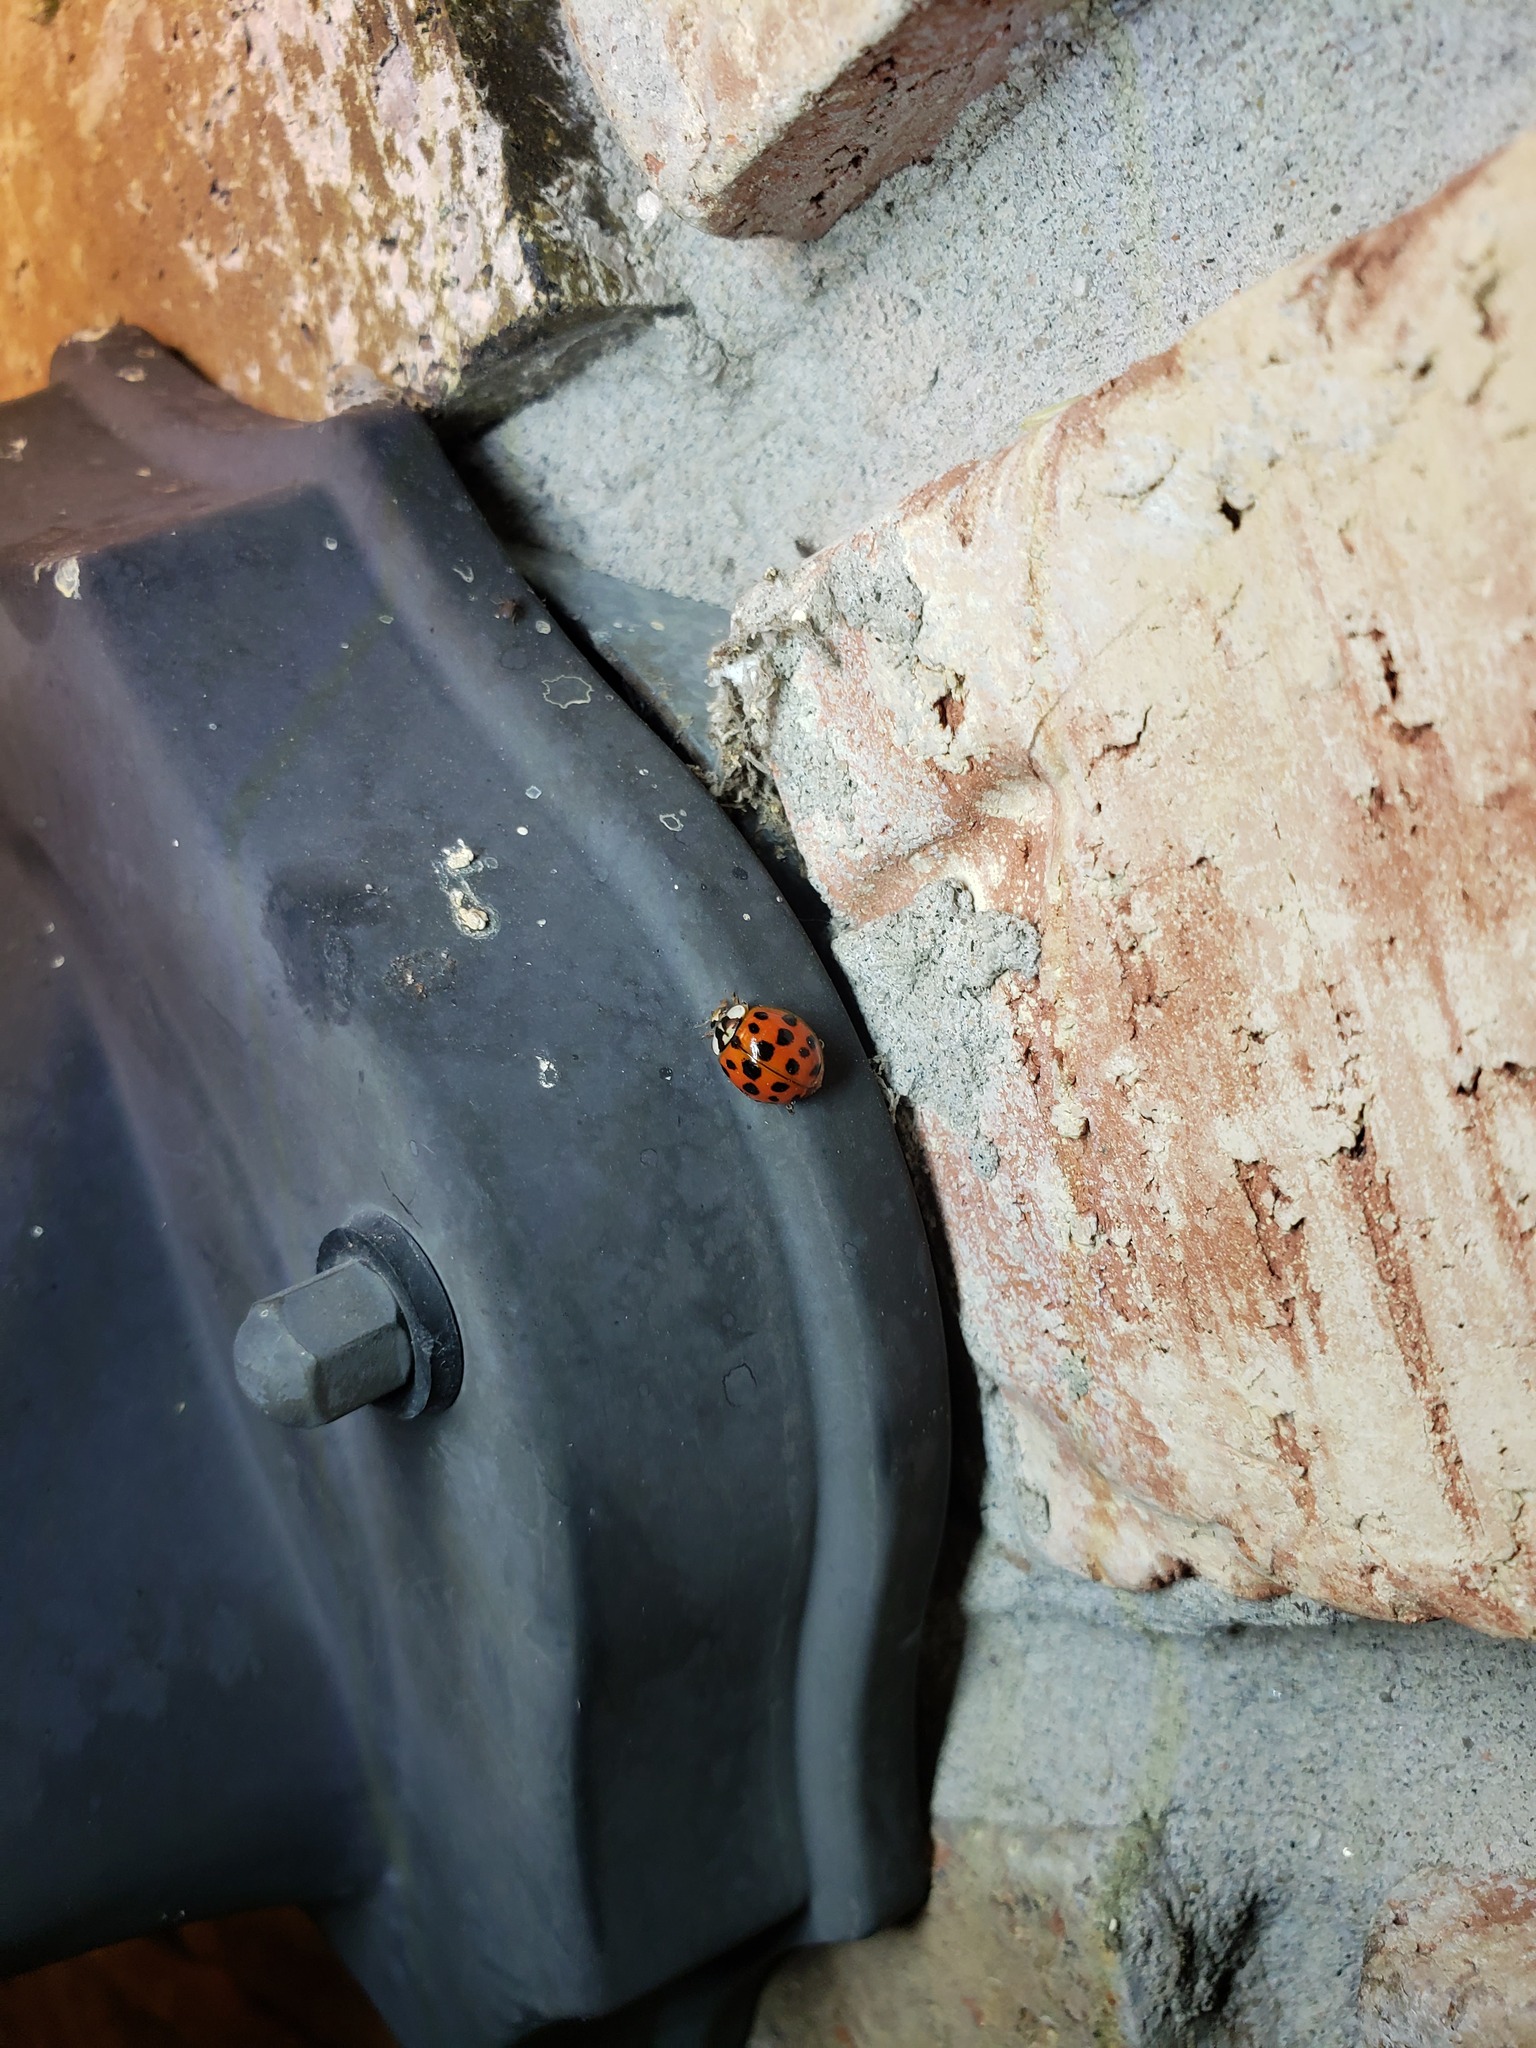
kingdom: Animalia
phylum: Arthropoda
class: Insecta
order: Coleoptera
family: Coccinellidae
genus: Harmonia
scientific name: Harmonia axyridis
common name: Harlequin ladybird
